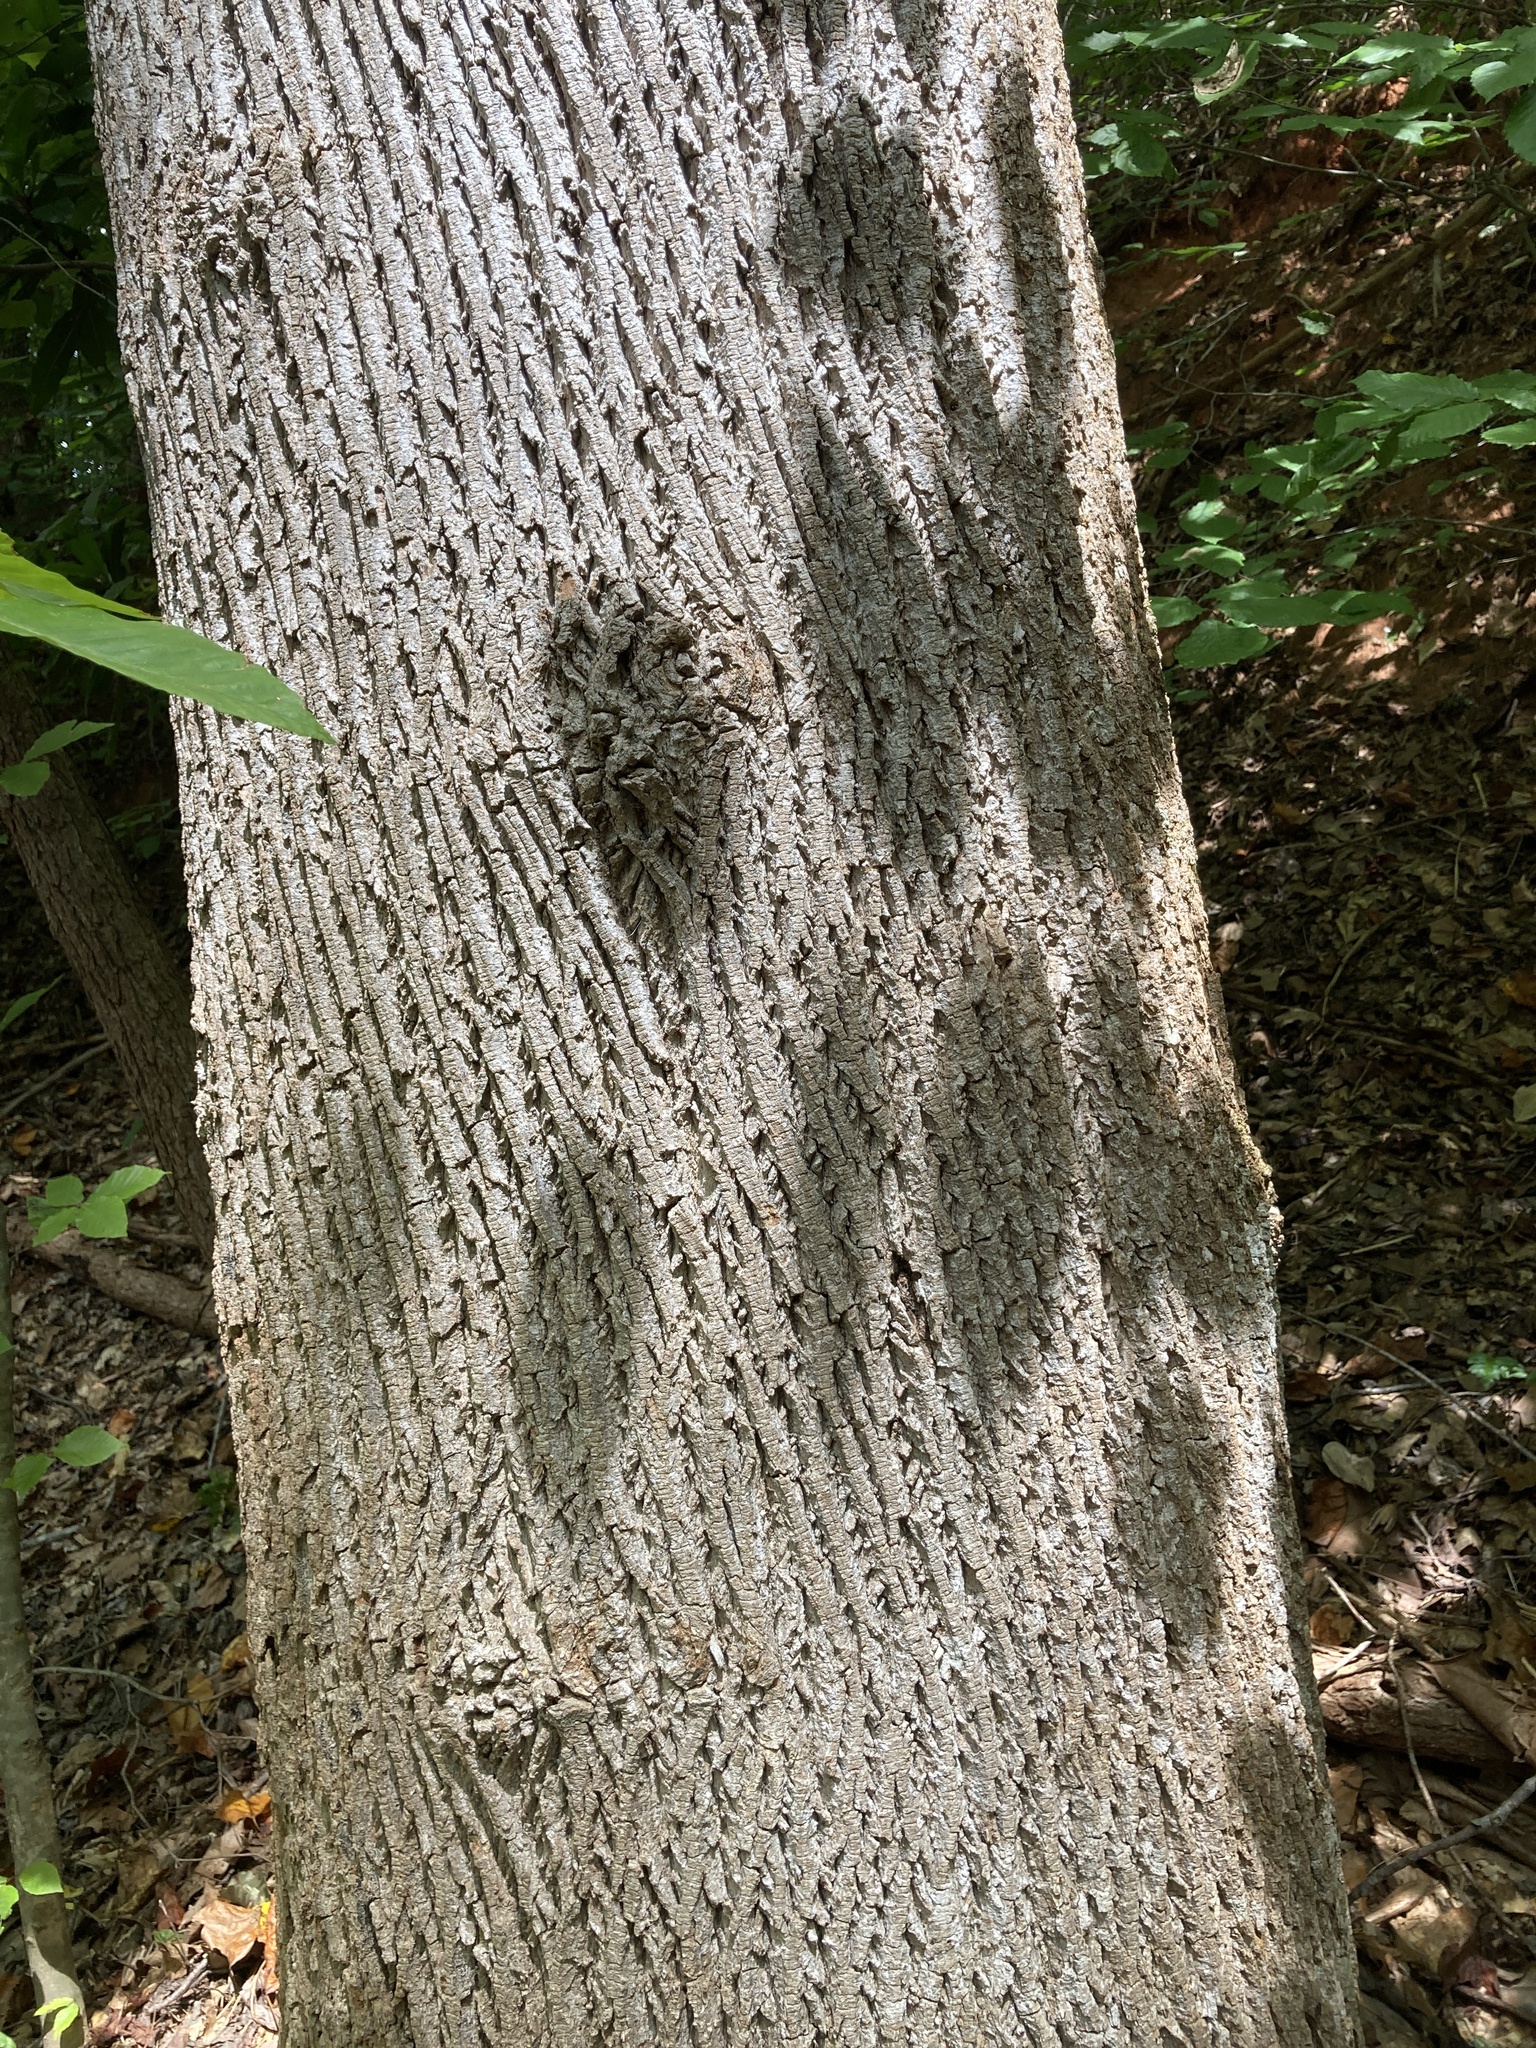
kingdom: Plantae
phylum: Tracheophyta
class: Magnoliopsida
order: Magnoliales
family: Magnoliaceae
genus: Liriodendron
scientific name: Liriodendron tulipifera
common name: Tulip tree
